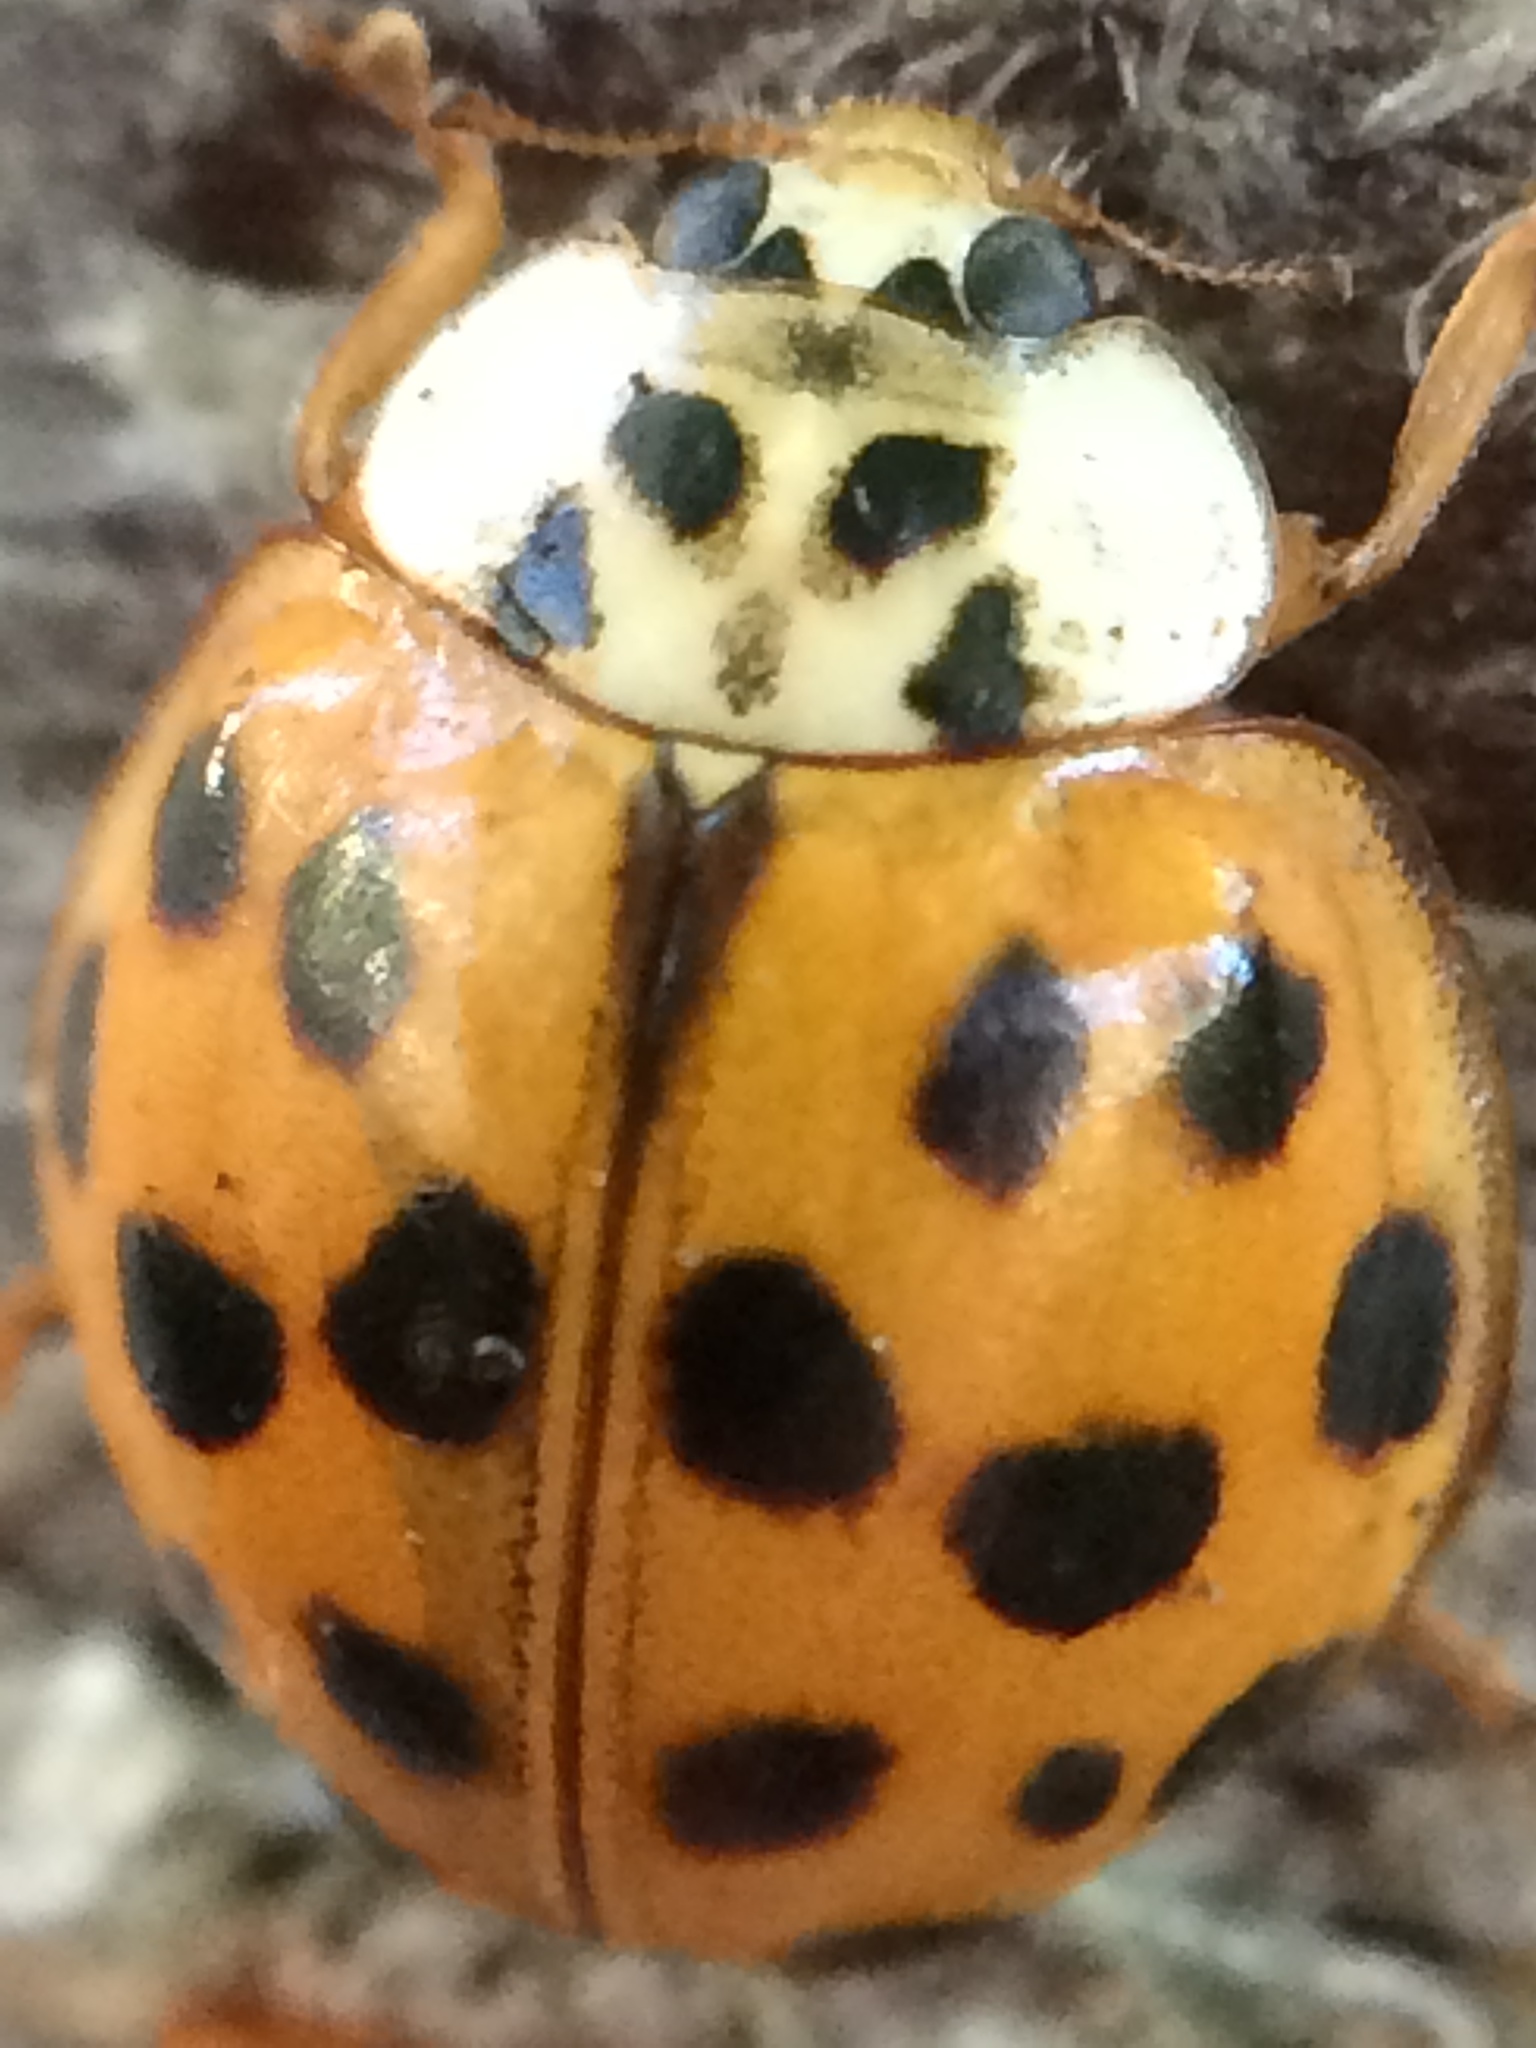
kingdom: Animalia
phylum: Arthropoda
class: Insecta
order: Coleoptera
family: Coccinellidae
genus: Harmonia
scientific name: Harmonia axyridis
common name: Harlequin ladybird
